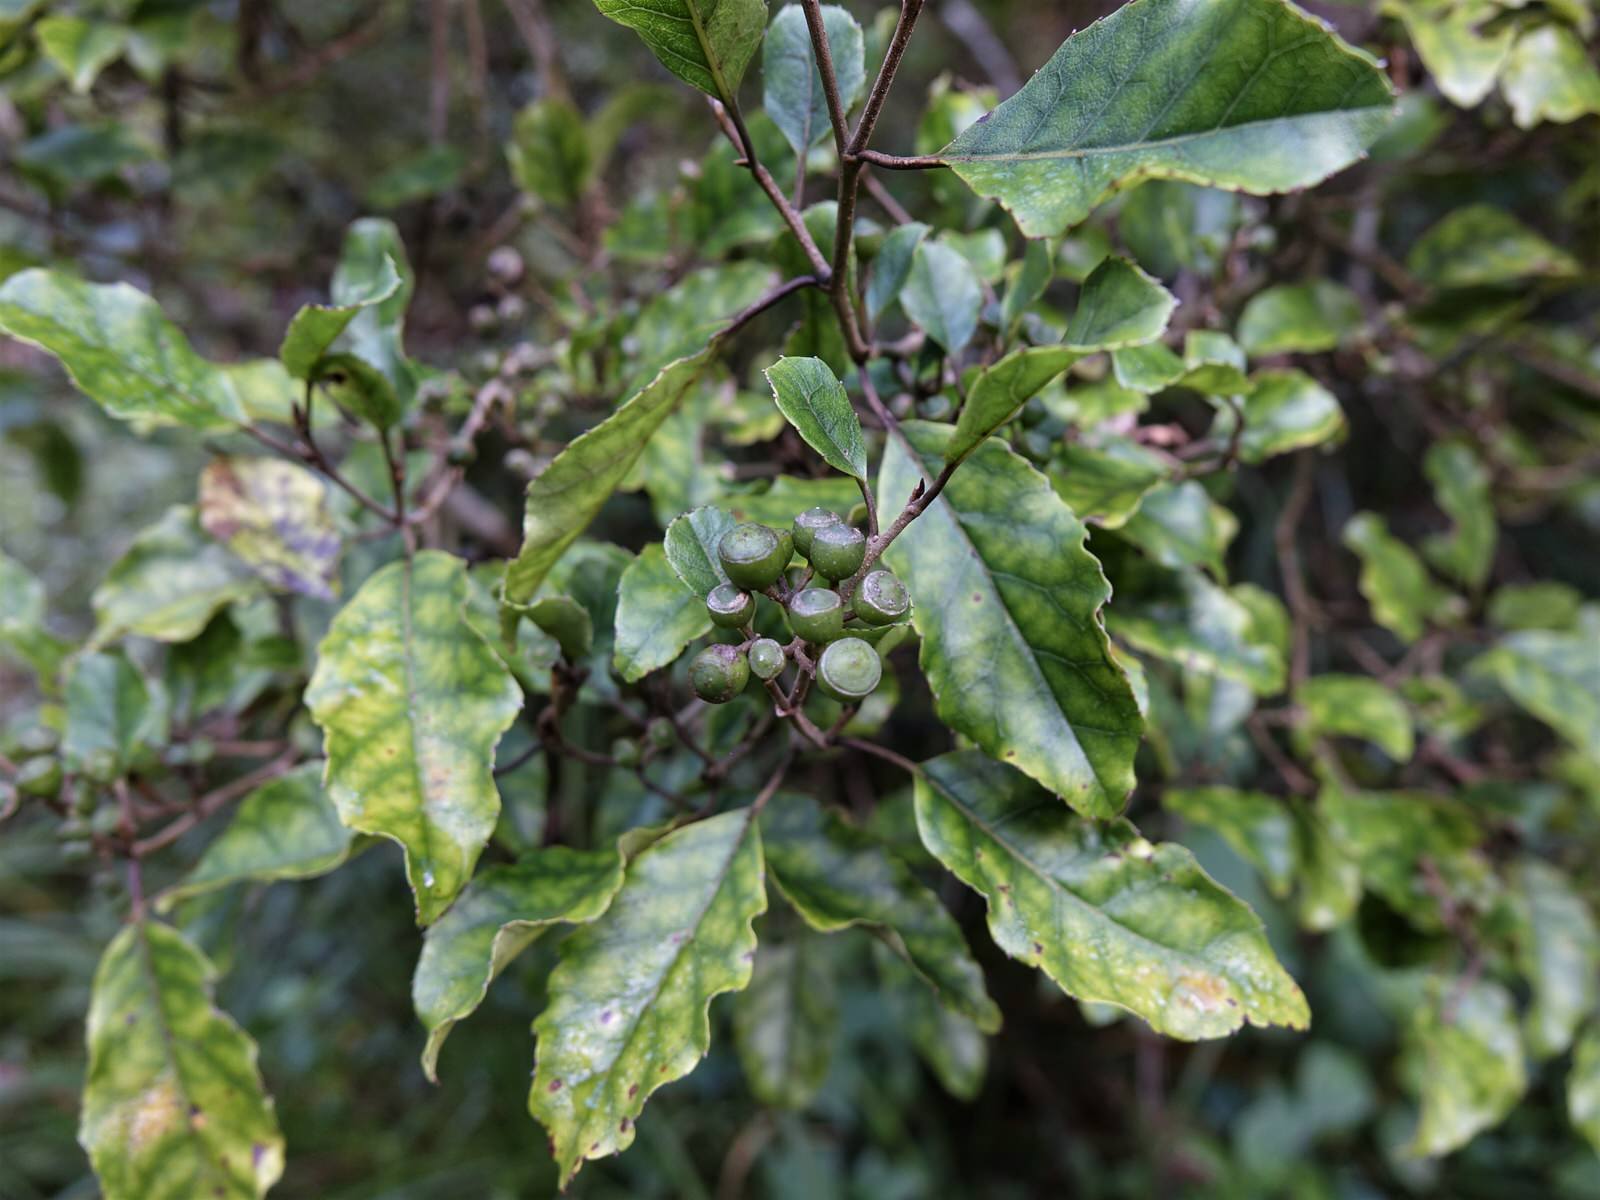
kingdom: Plantae
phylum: Tracheophyta
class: Magnoliopsida
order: Asterales
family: Rousseaceae
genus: Carpodetus
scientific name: Carpodetus serratus
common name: White mapau
